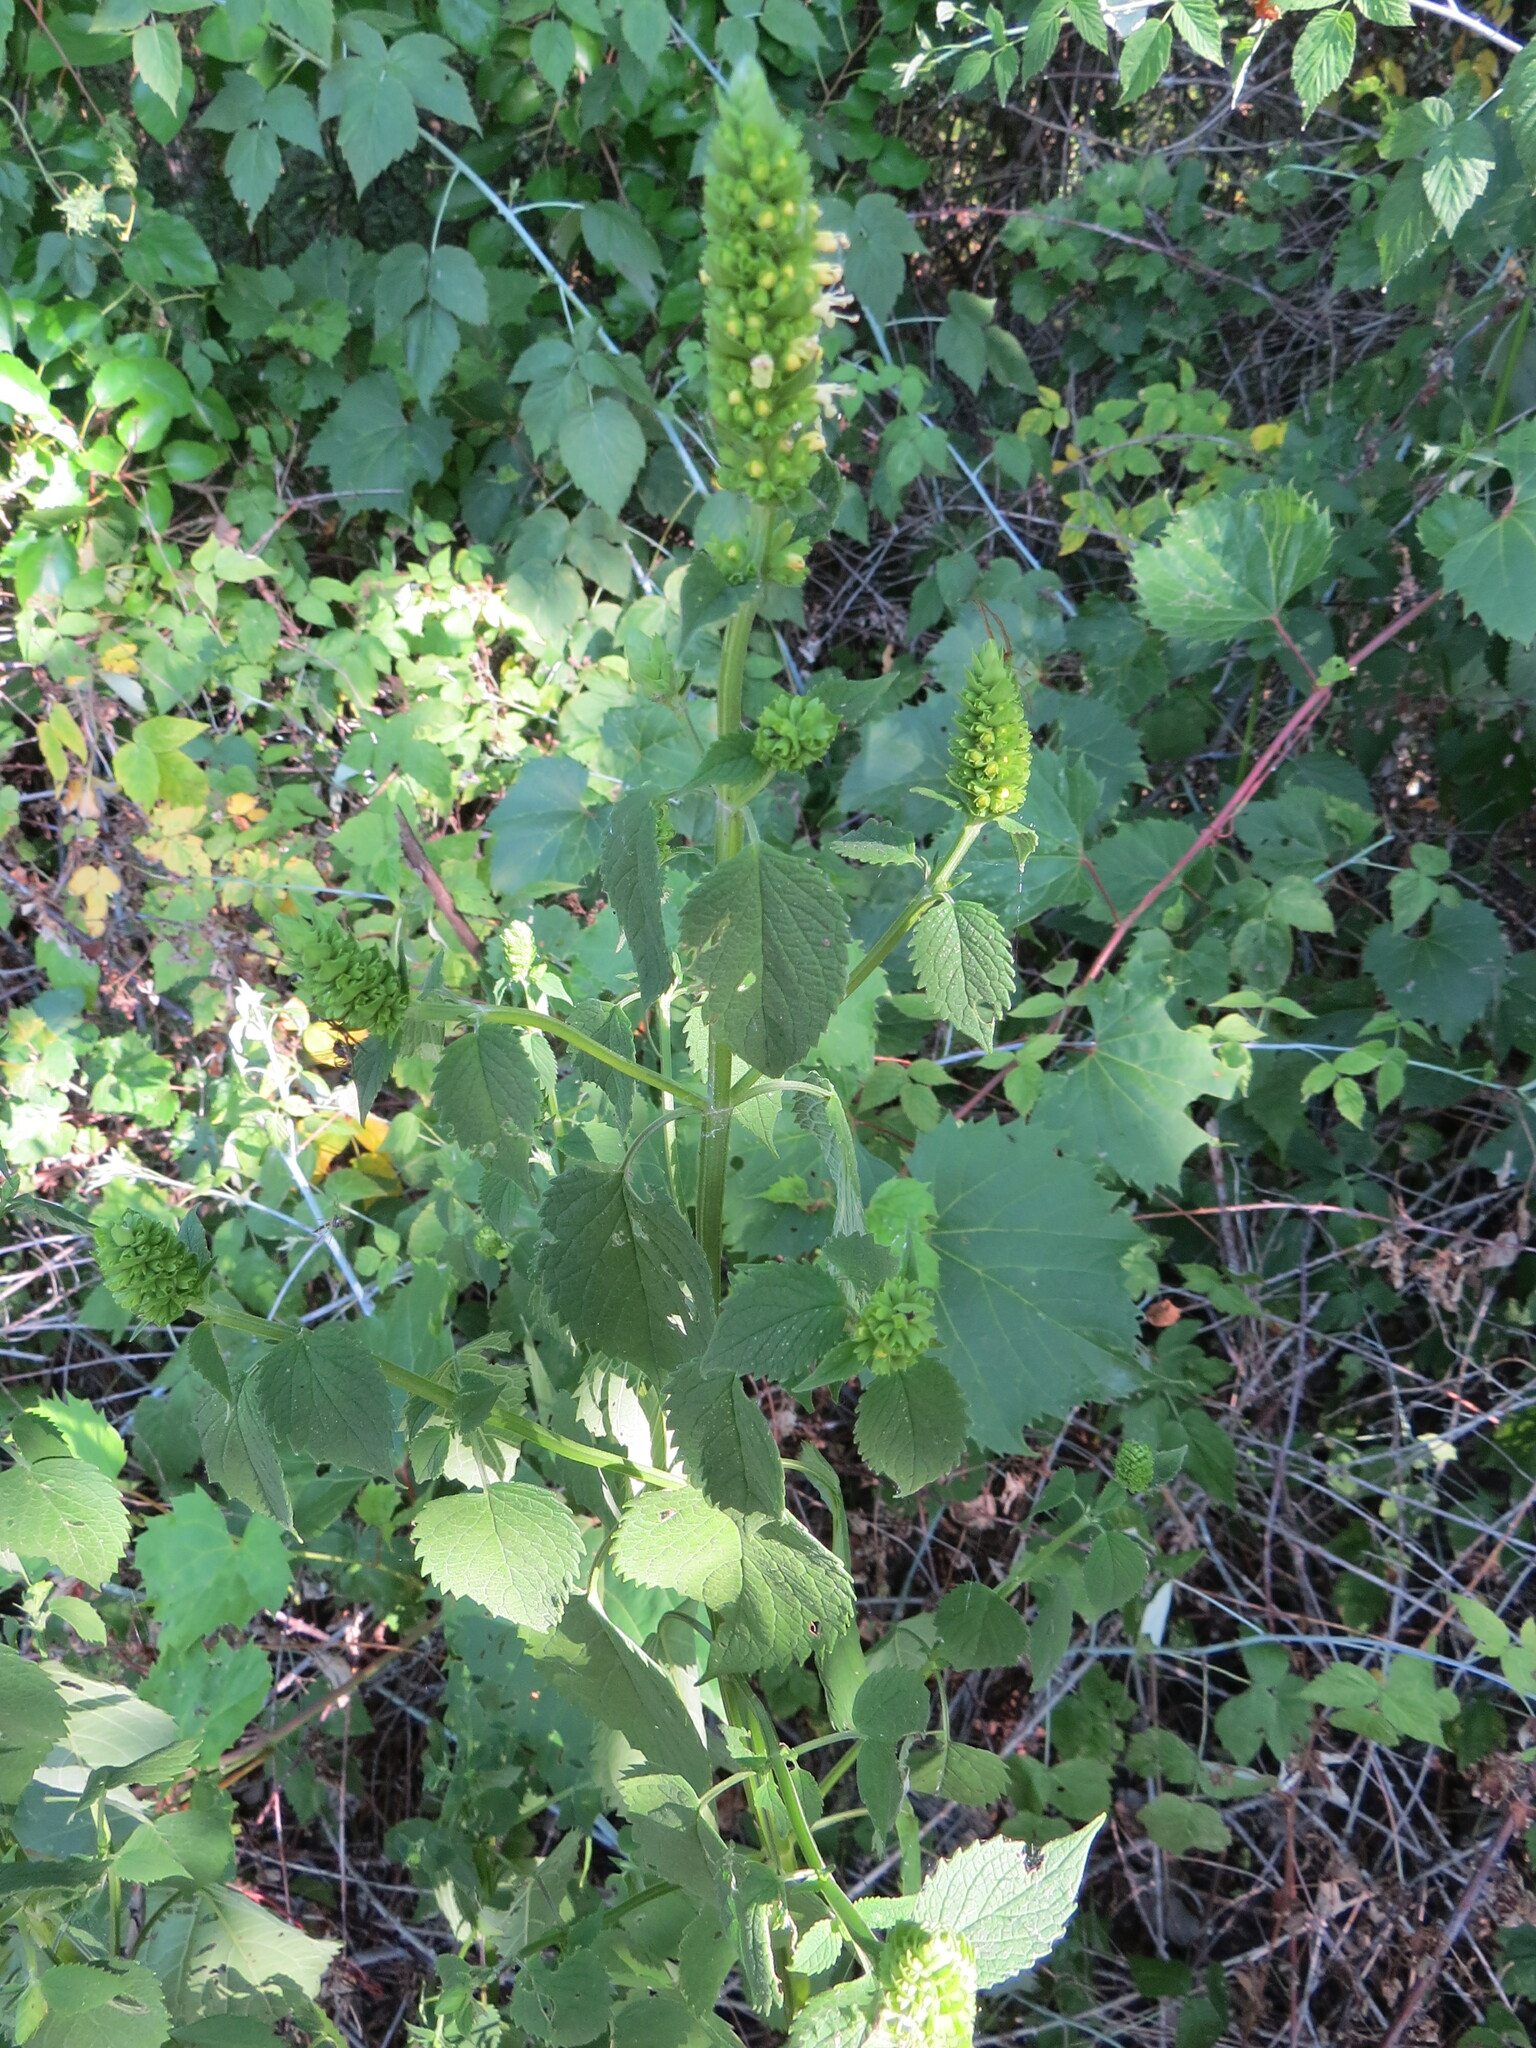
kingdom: Plantae
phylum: Tracheophyta
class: Magnoliopsida
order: Lamiales
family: Lamiaceae
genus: Agastache
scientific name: Agastache nepetoides
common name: Catnip giant hyssop
